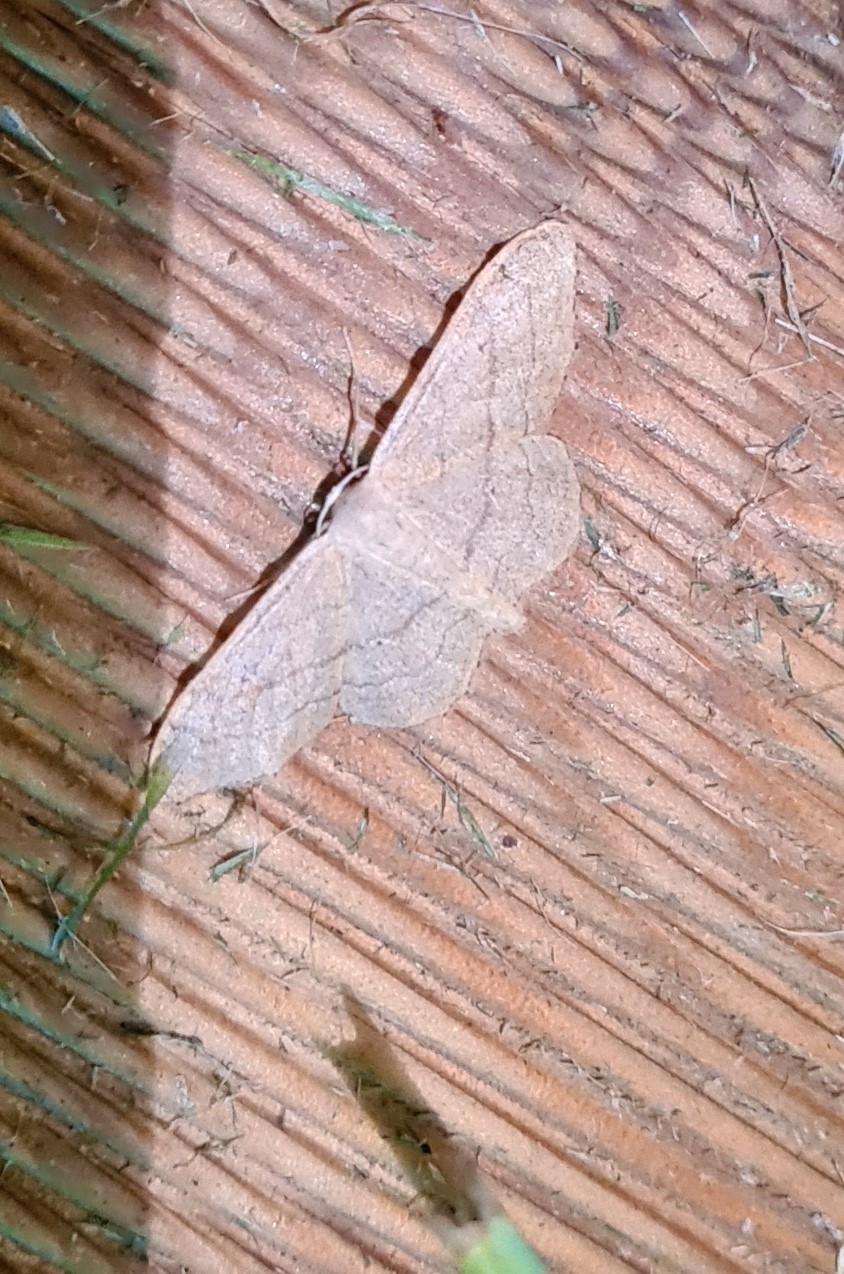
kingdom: Animalia
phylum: Arthropoda
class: Insecta
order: Lepidoptera
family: Geometridae
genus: Idaea
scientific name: Idaea aversata
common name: Riband wave
